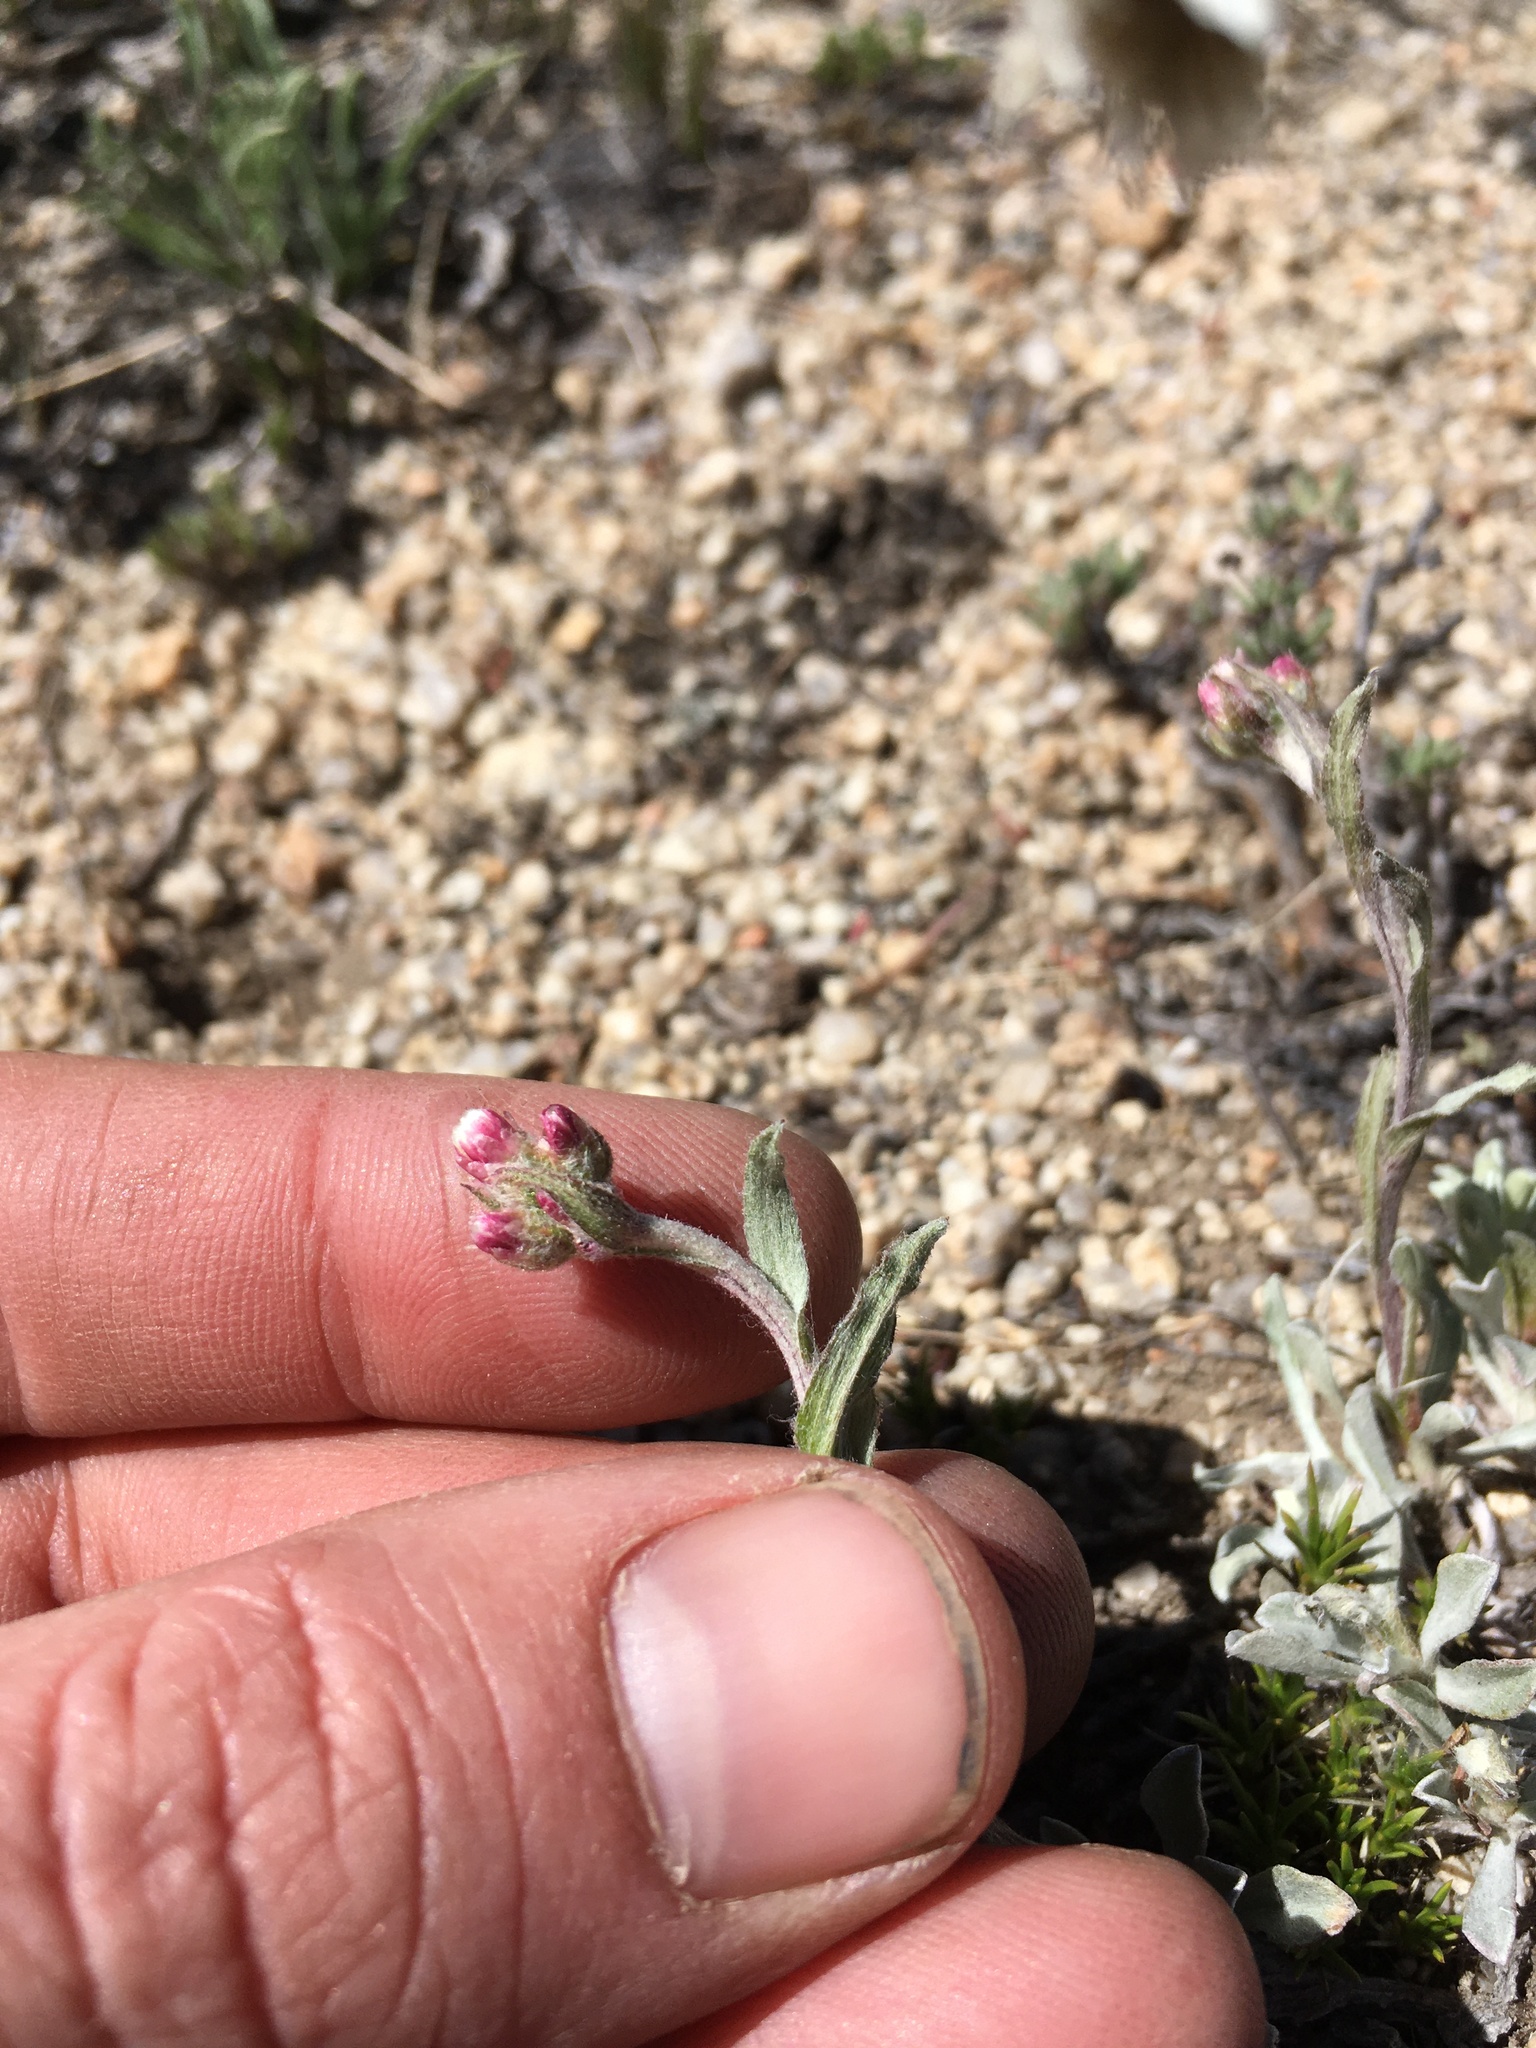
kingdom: Plantae
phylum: Tracheophyta
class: Magnoliopsida
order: Asterales
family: Asteraceae
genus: Antennaria
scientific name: Antennaria rosea
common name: Rosy pussytoes
